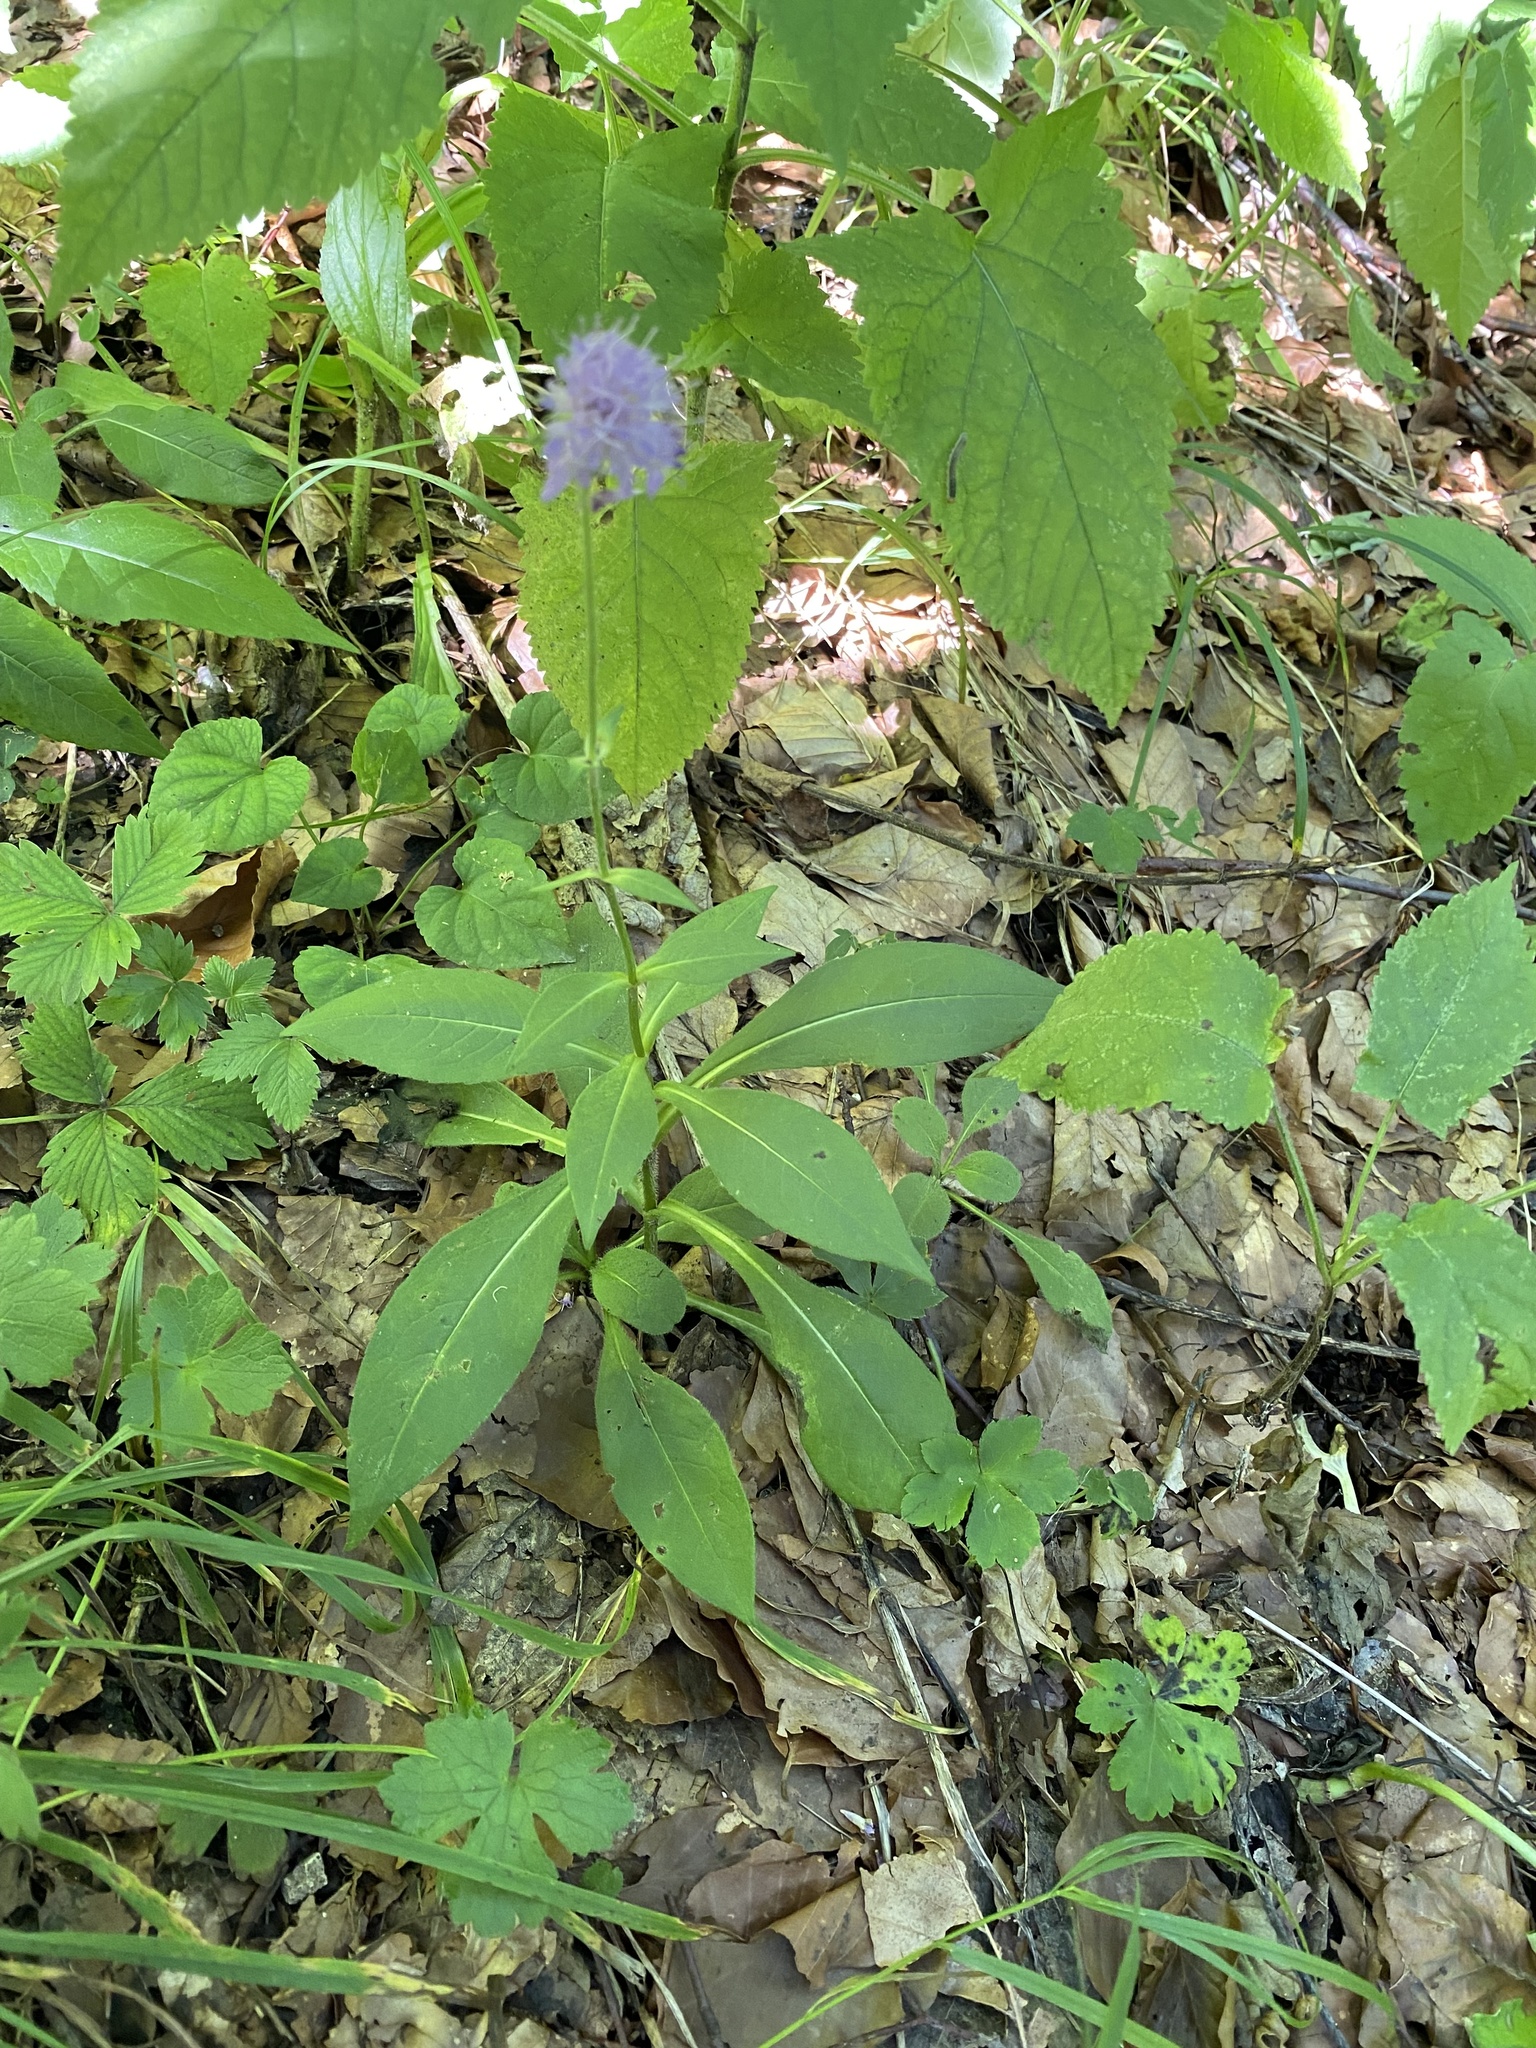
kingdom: Plantae
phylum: Tracheophyta
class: Magnoliopsida
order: Dipsacales
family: Caprifoliaceae
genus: Knautia
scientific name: Knautia dipsacifolia
